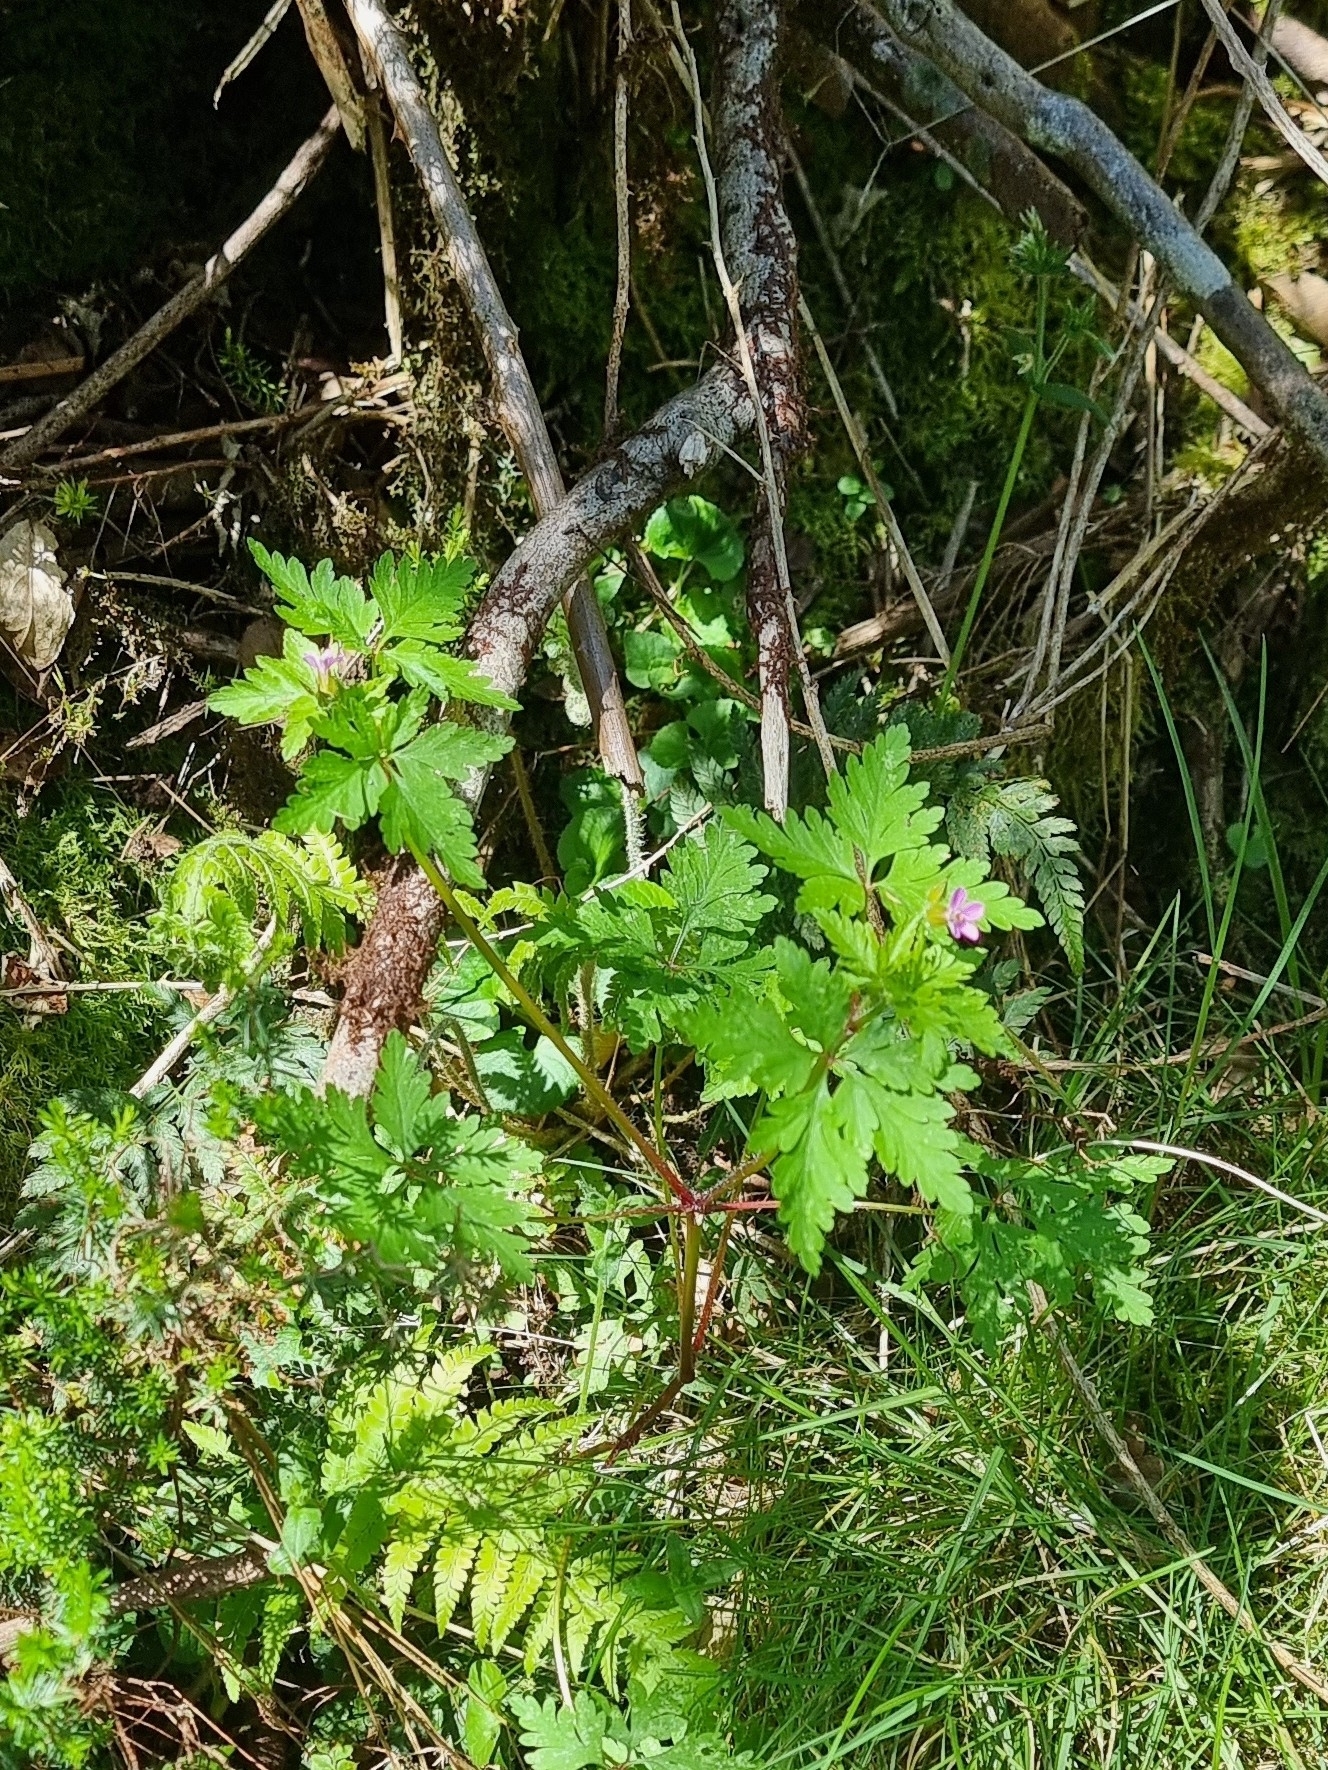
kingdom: Plantae
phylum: Tracheophyta
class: Magnoliopsida
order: Geraniales
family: Geraniaceae
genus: Geranium
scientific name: Geranium purpureum
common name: Little-robin
